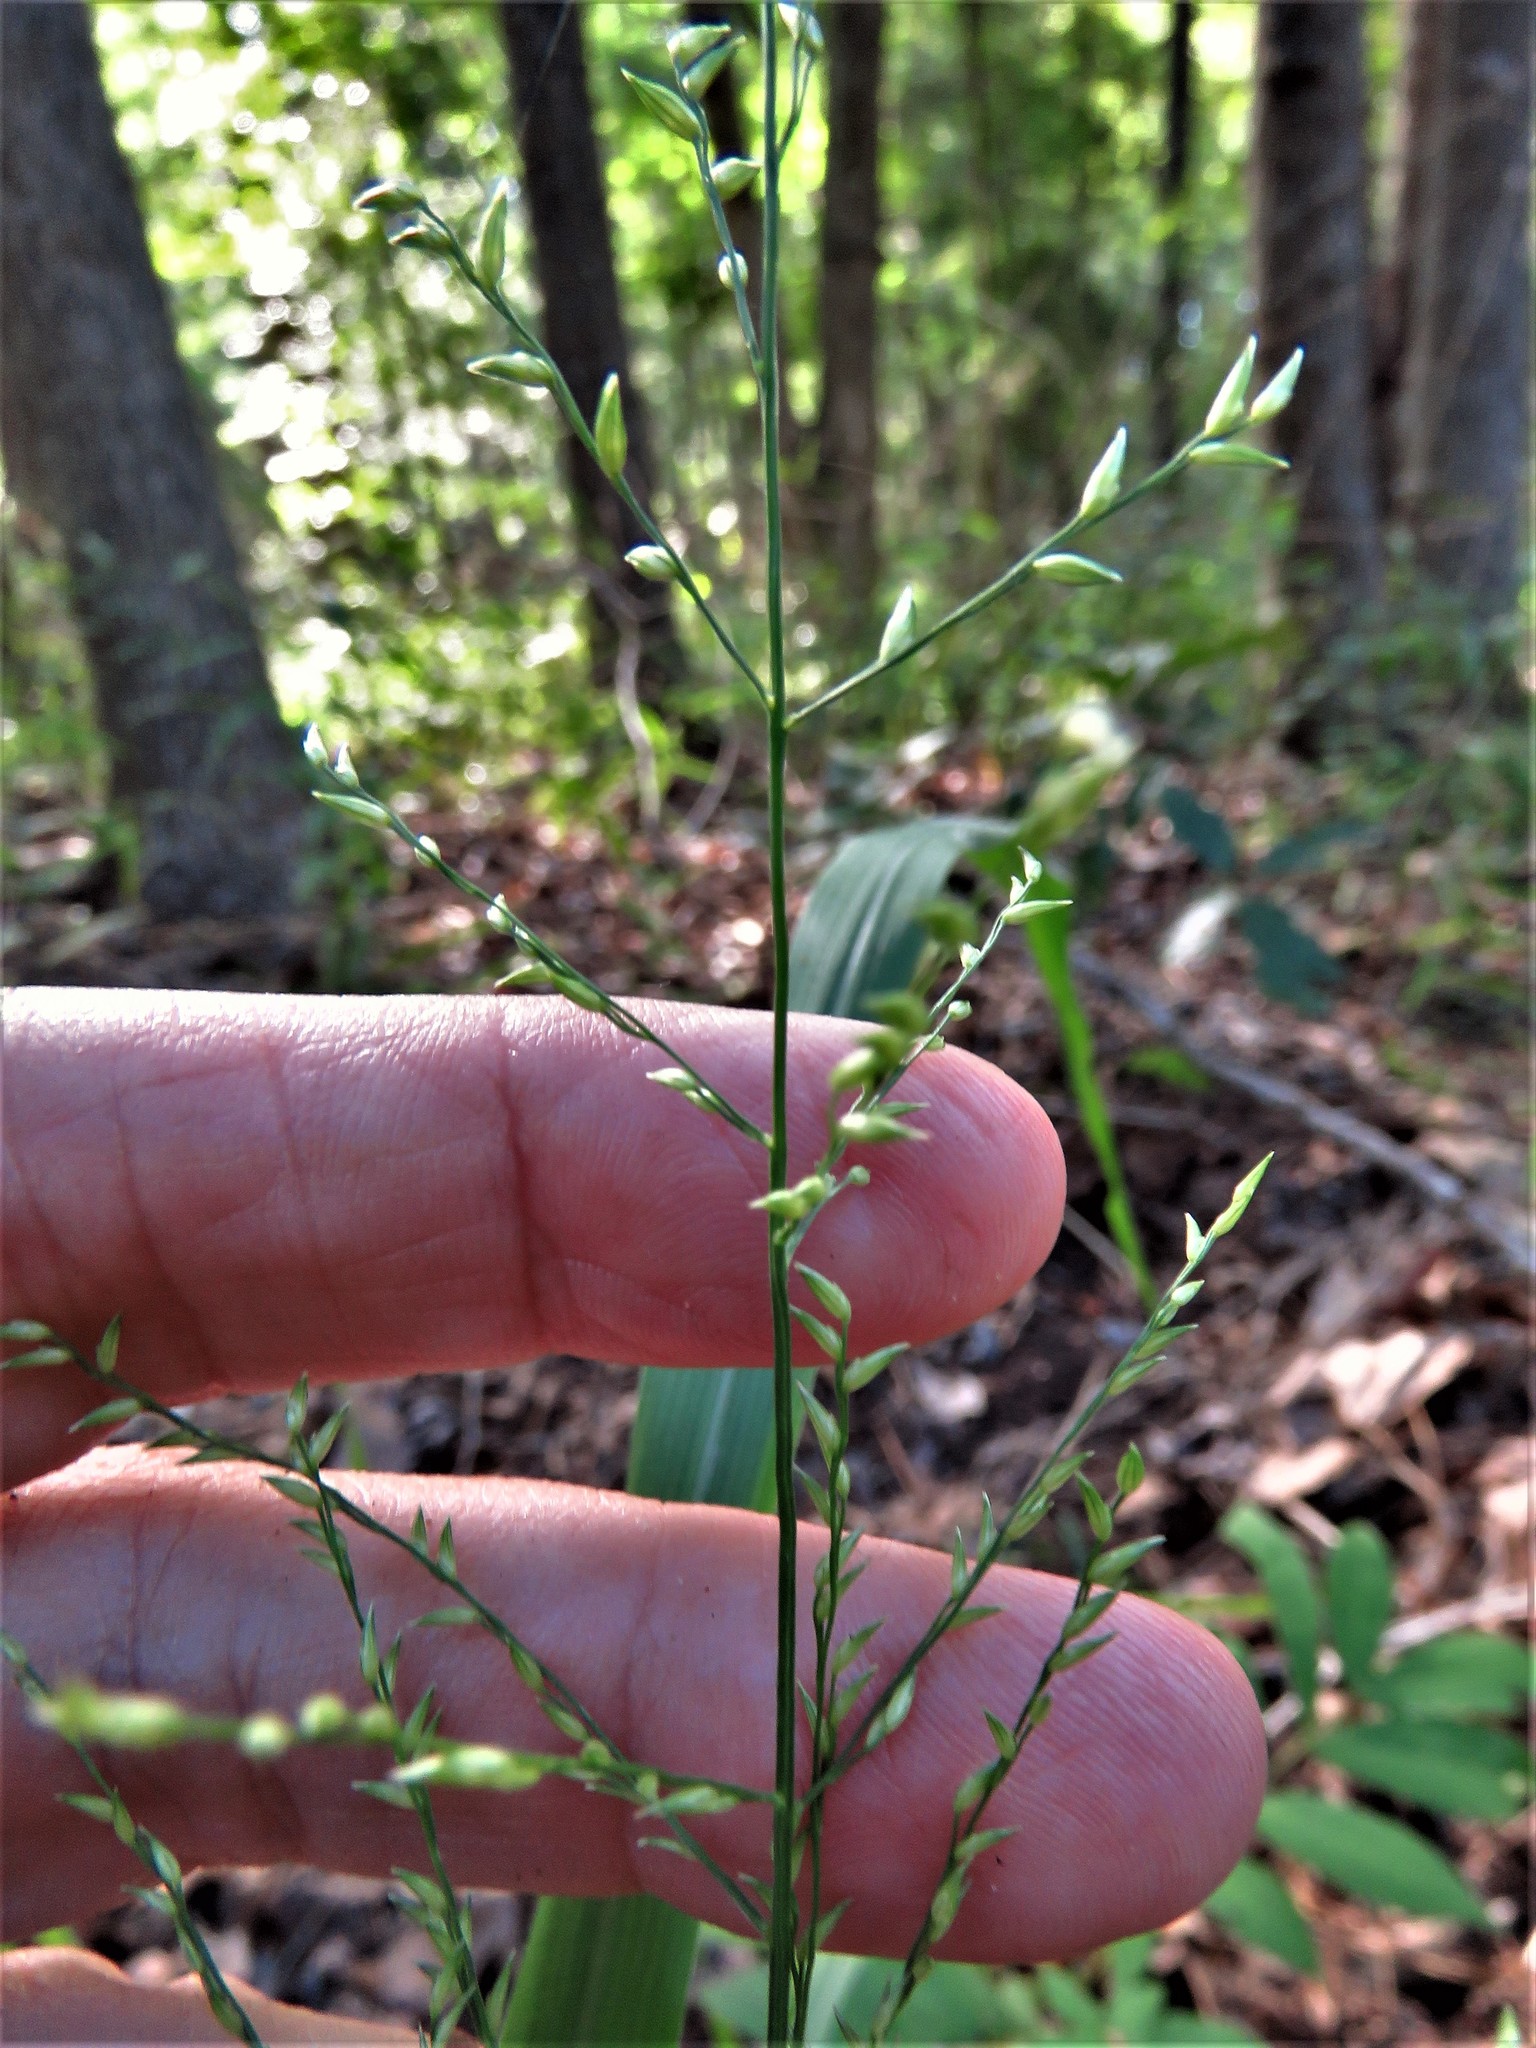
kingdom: Plantae
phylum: Tracheophyta
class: Liliopsida
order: Poales
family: Poaceae
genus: Coleataenia
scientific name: Coleataenia anceps
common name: Beaked panic grass
